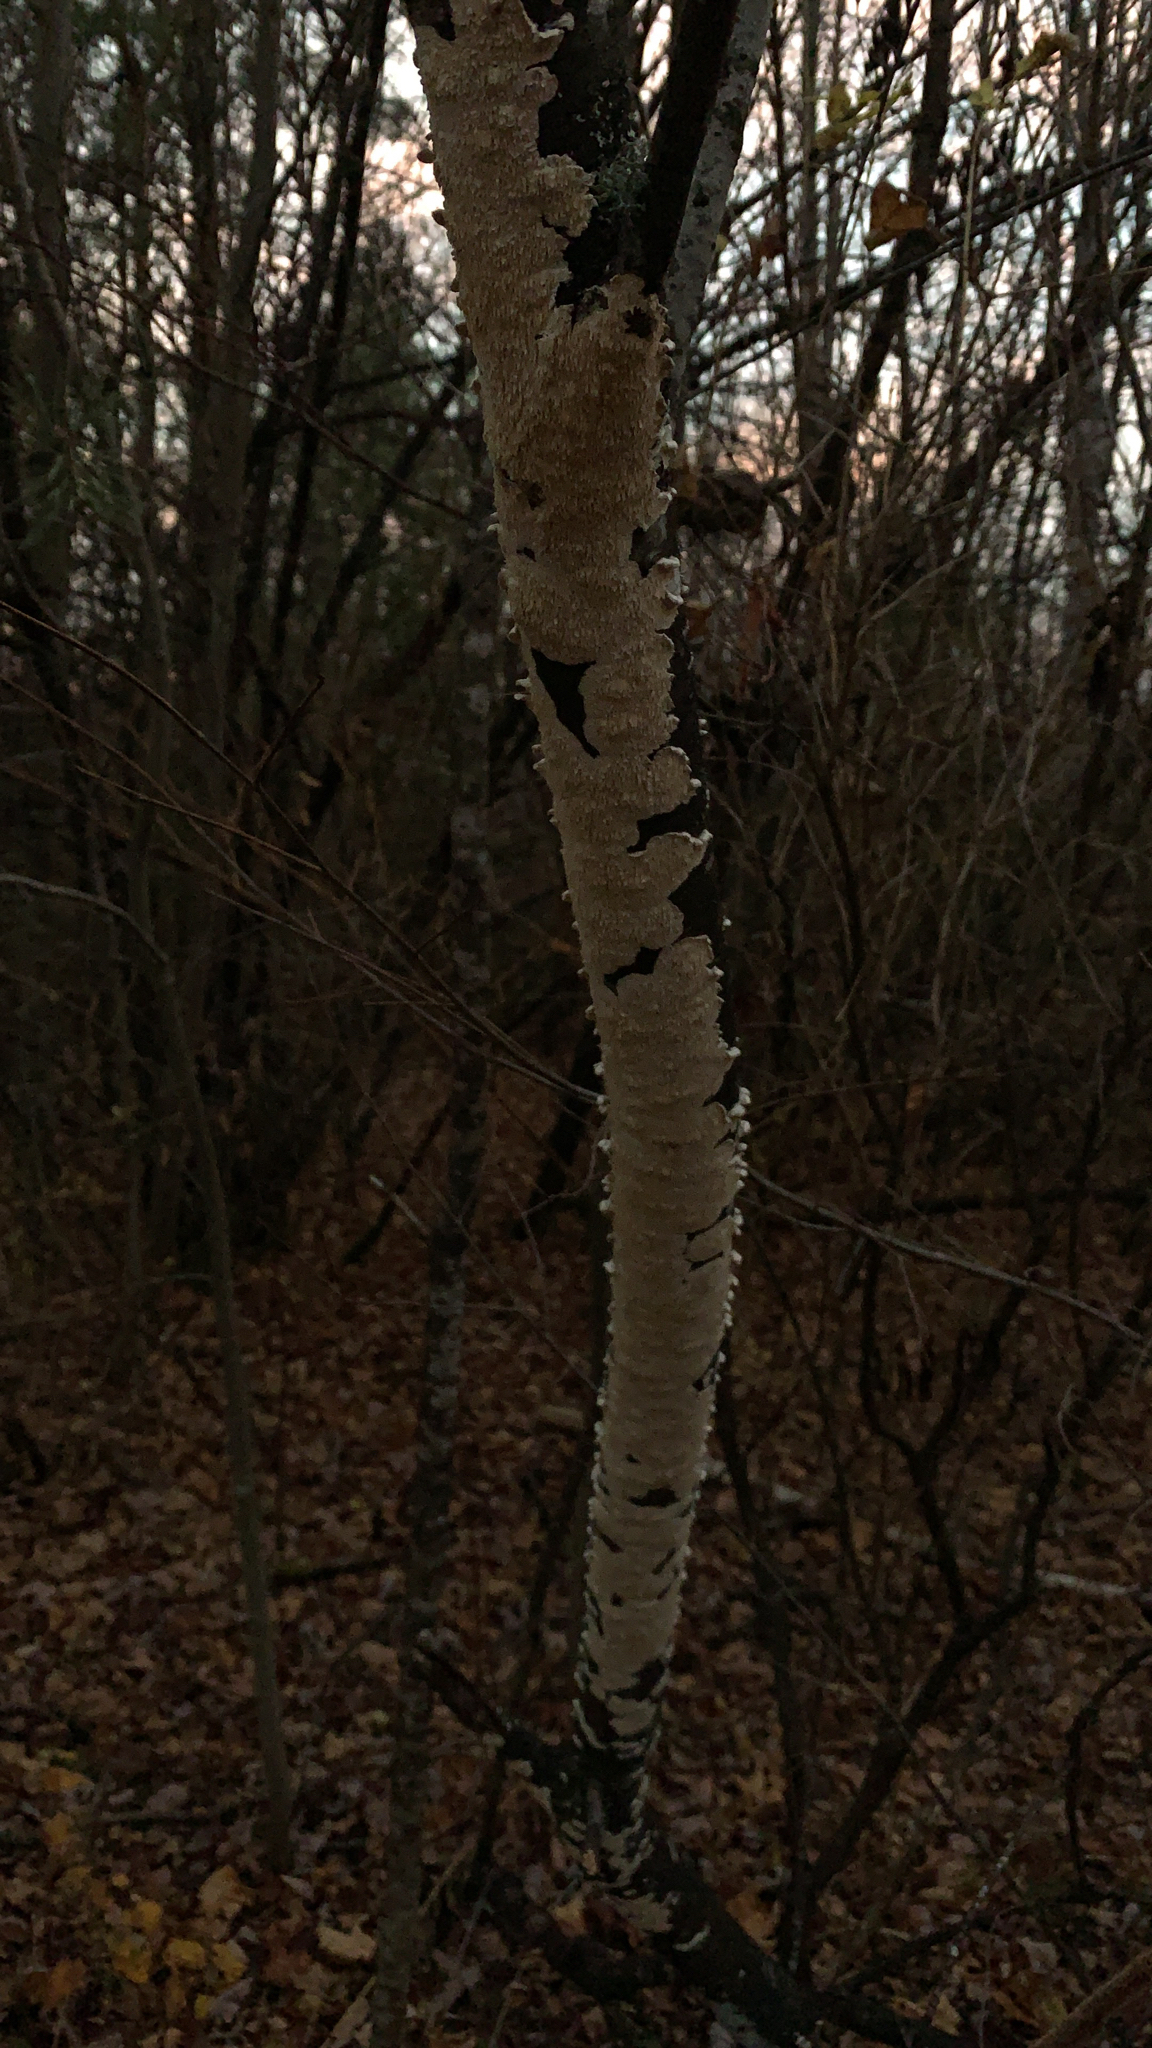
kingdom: Fungi
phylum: Basidiomycota
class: Agaricomycetes
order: Polyporales
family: Irpicaceae
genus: Irpex
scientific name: Irpex lacteus
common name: Milk-white toothed polypore
